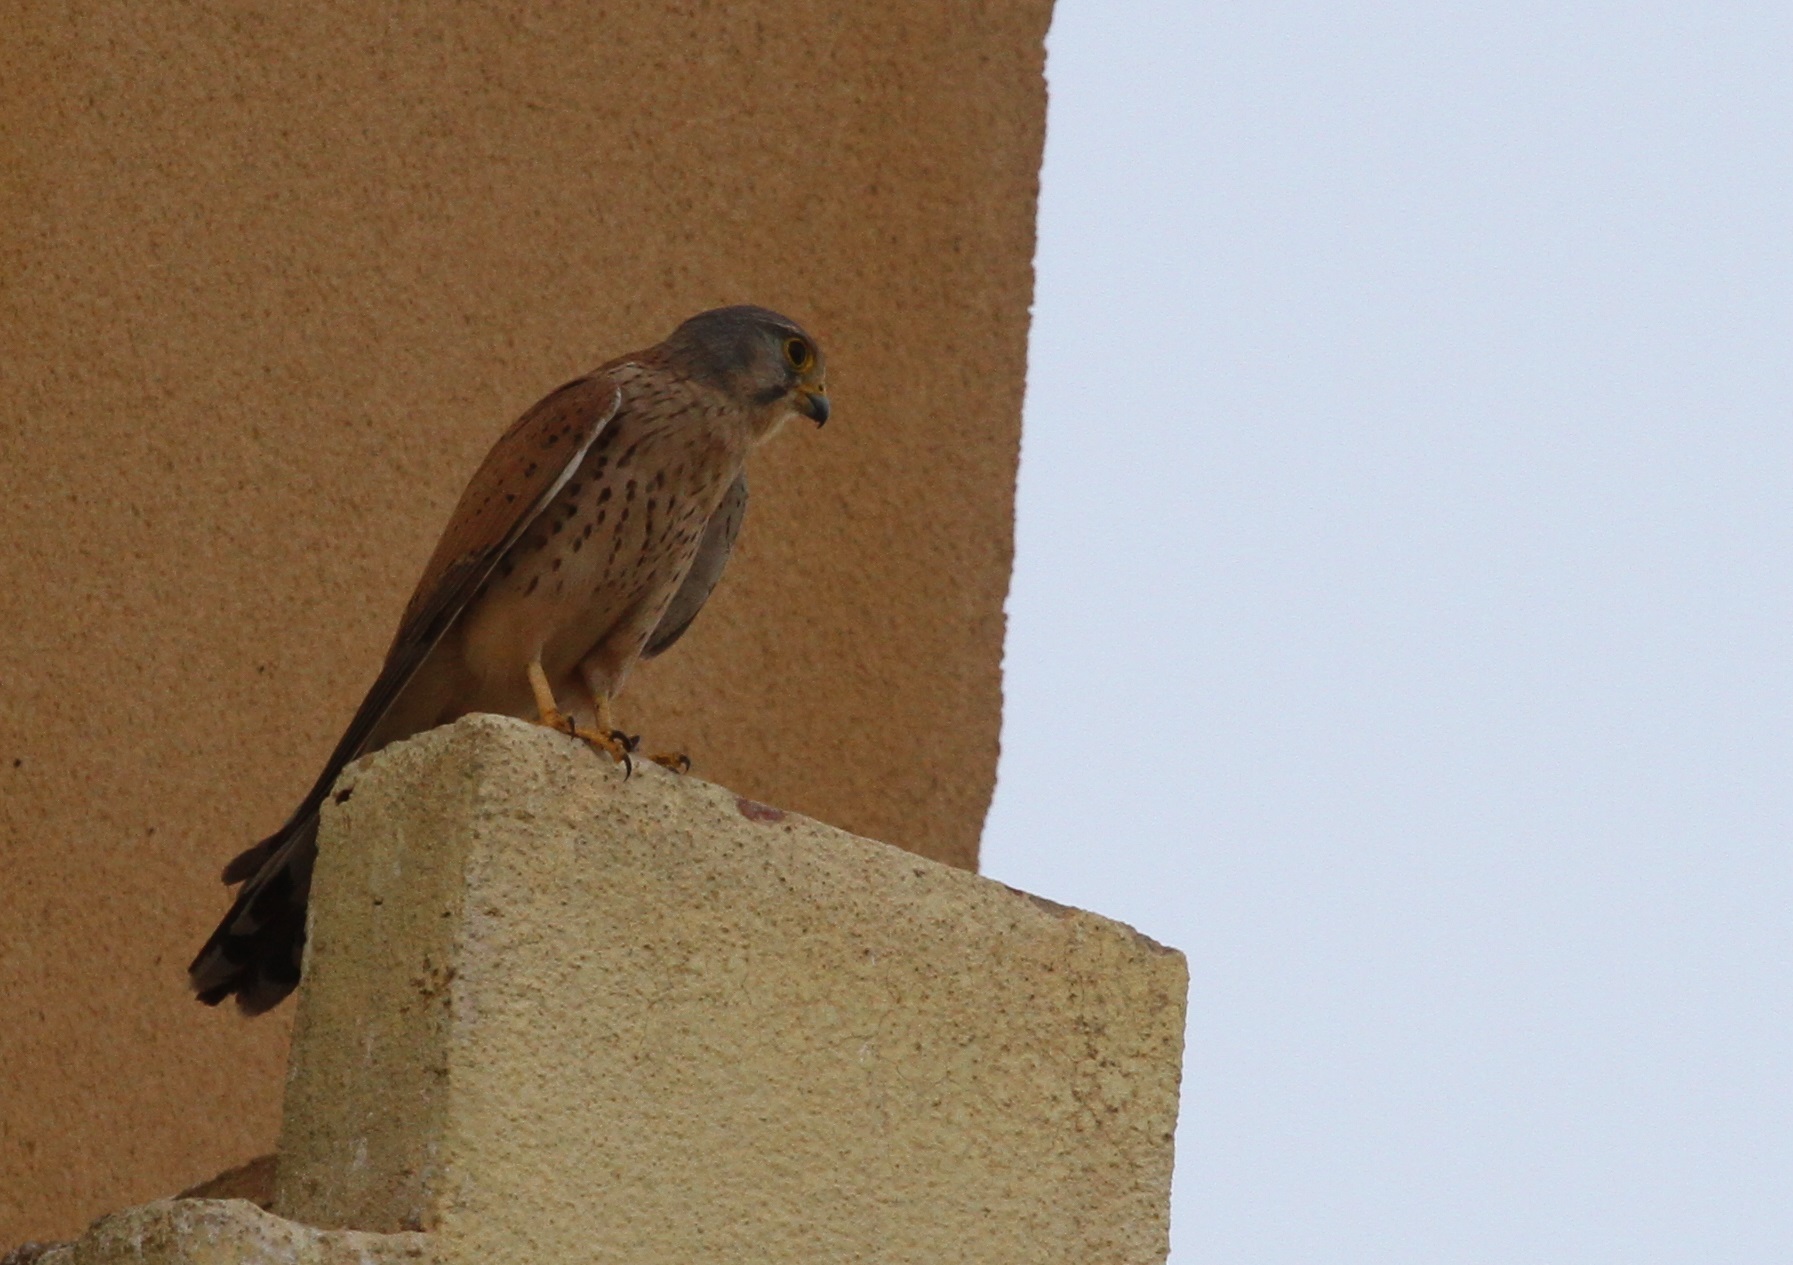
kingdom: Animalia
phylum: Chordata
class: Aves
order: Falconiformes
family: Falconidae
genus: Falco
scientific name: Falco tinnunculus
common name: Common kestrel
